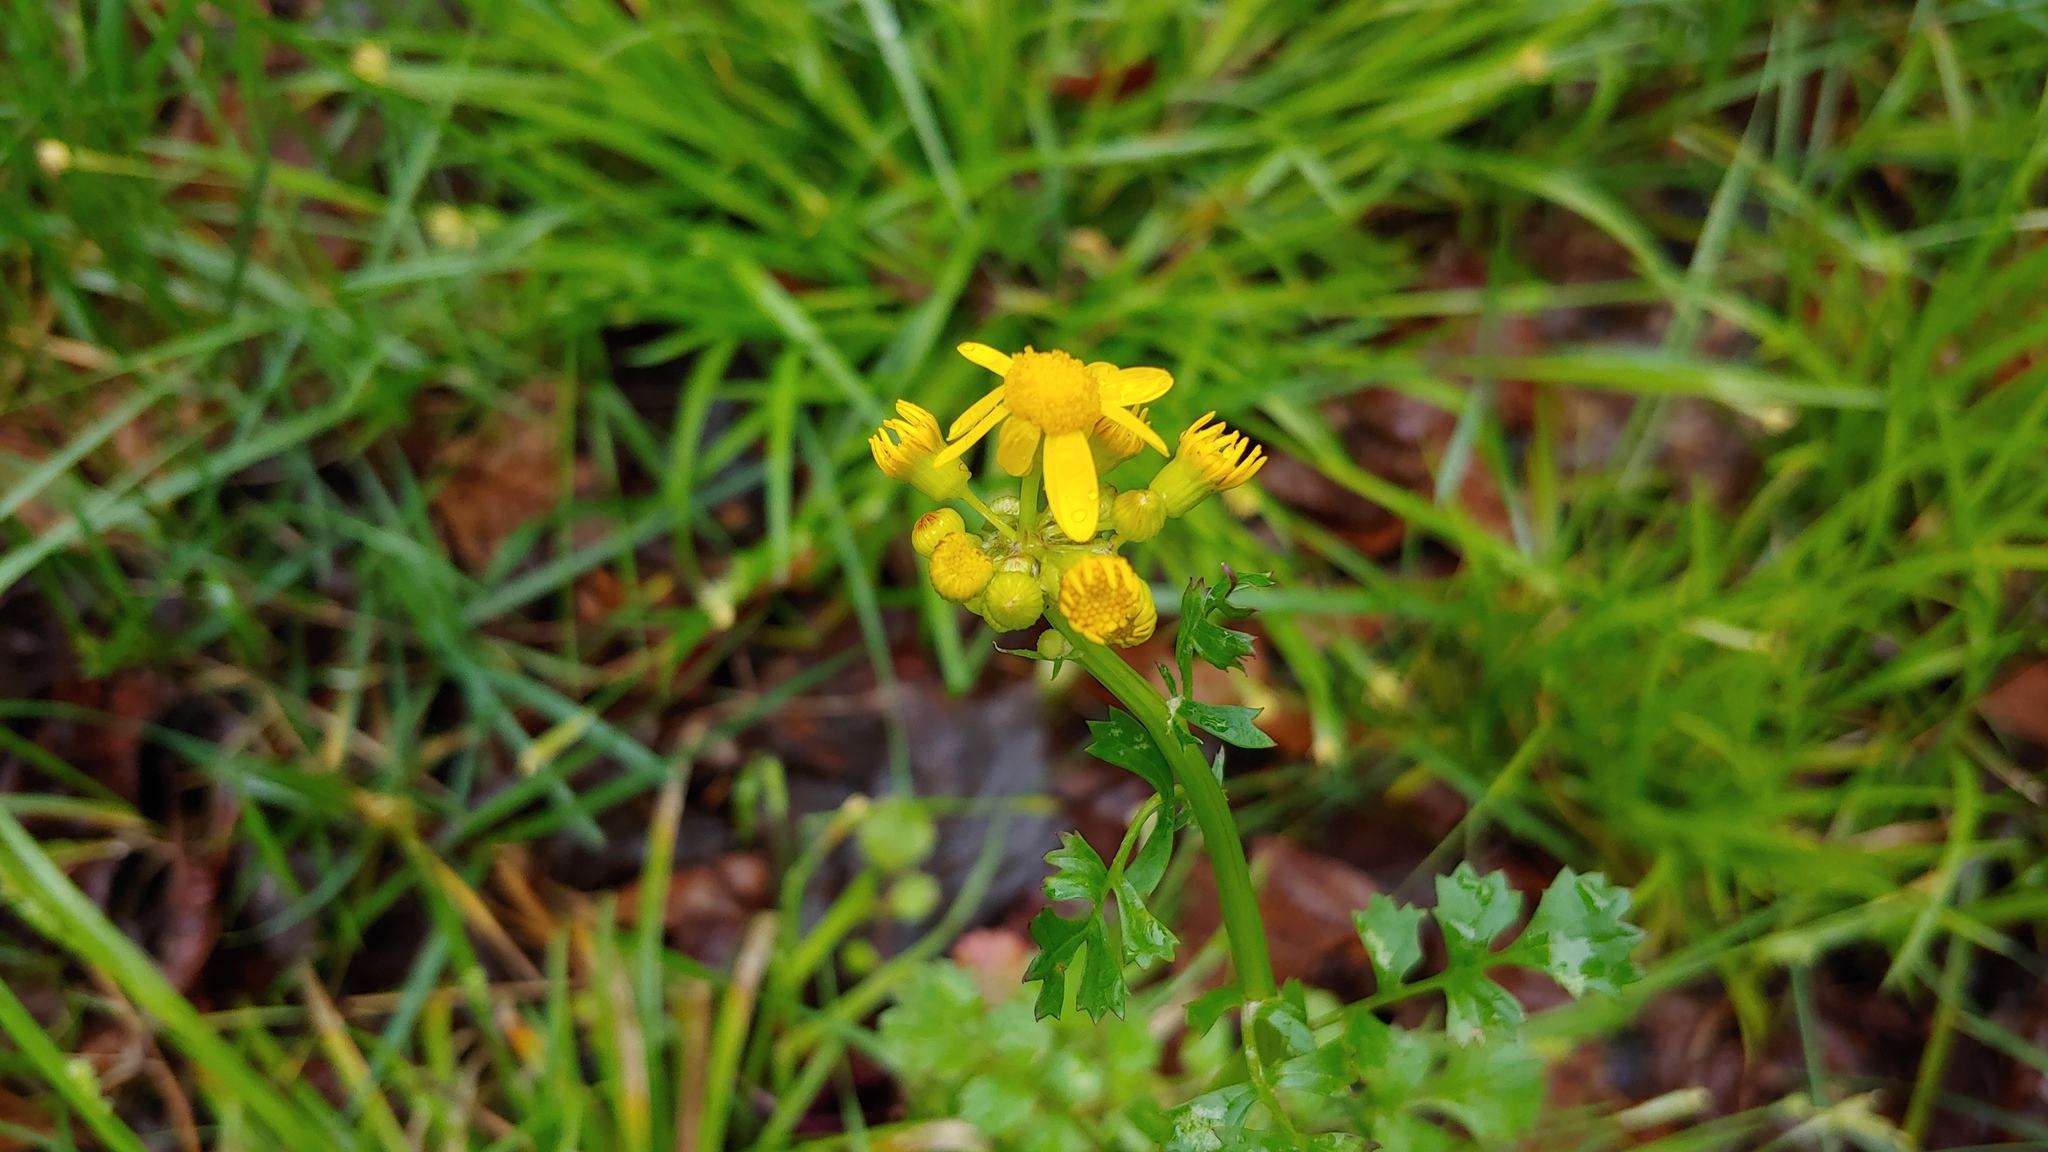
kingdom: Plantae
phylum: Tracheophyta
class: Magnoliopsida
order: Asterales
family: Asteraceae
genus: Packera
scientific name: Packera glabella
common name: Butterweed
